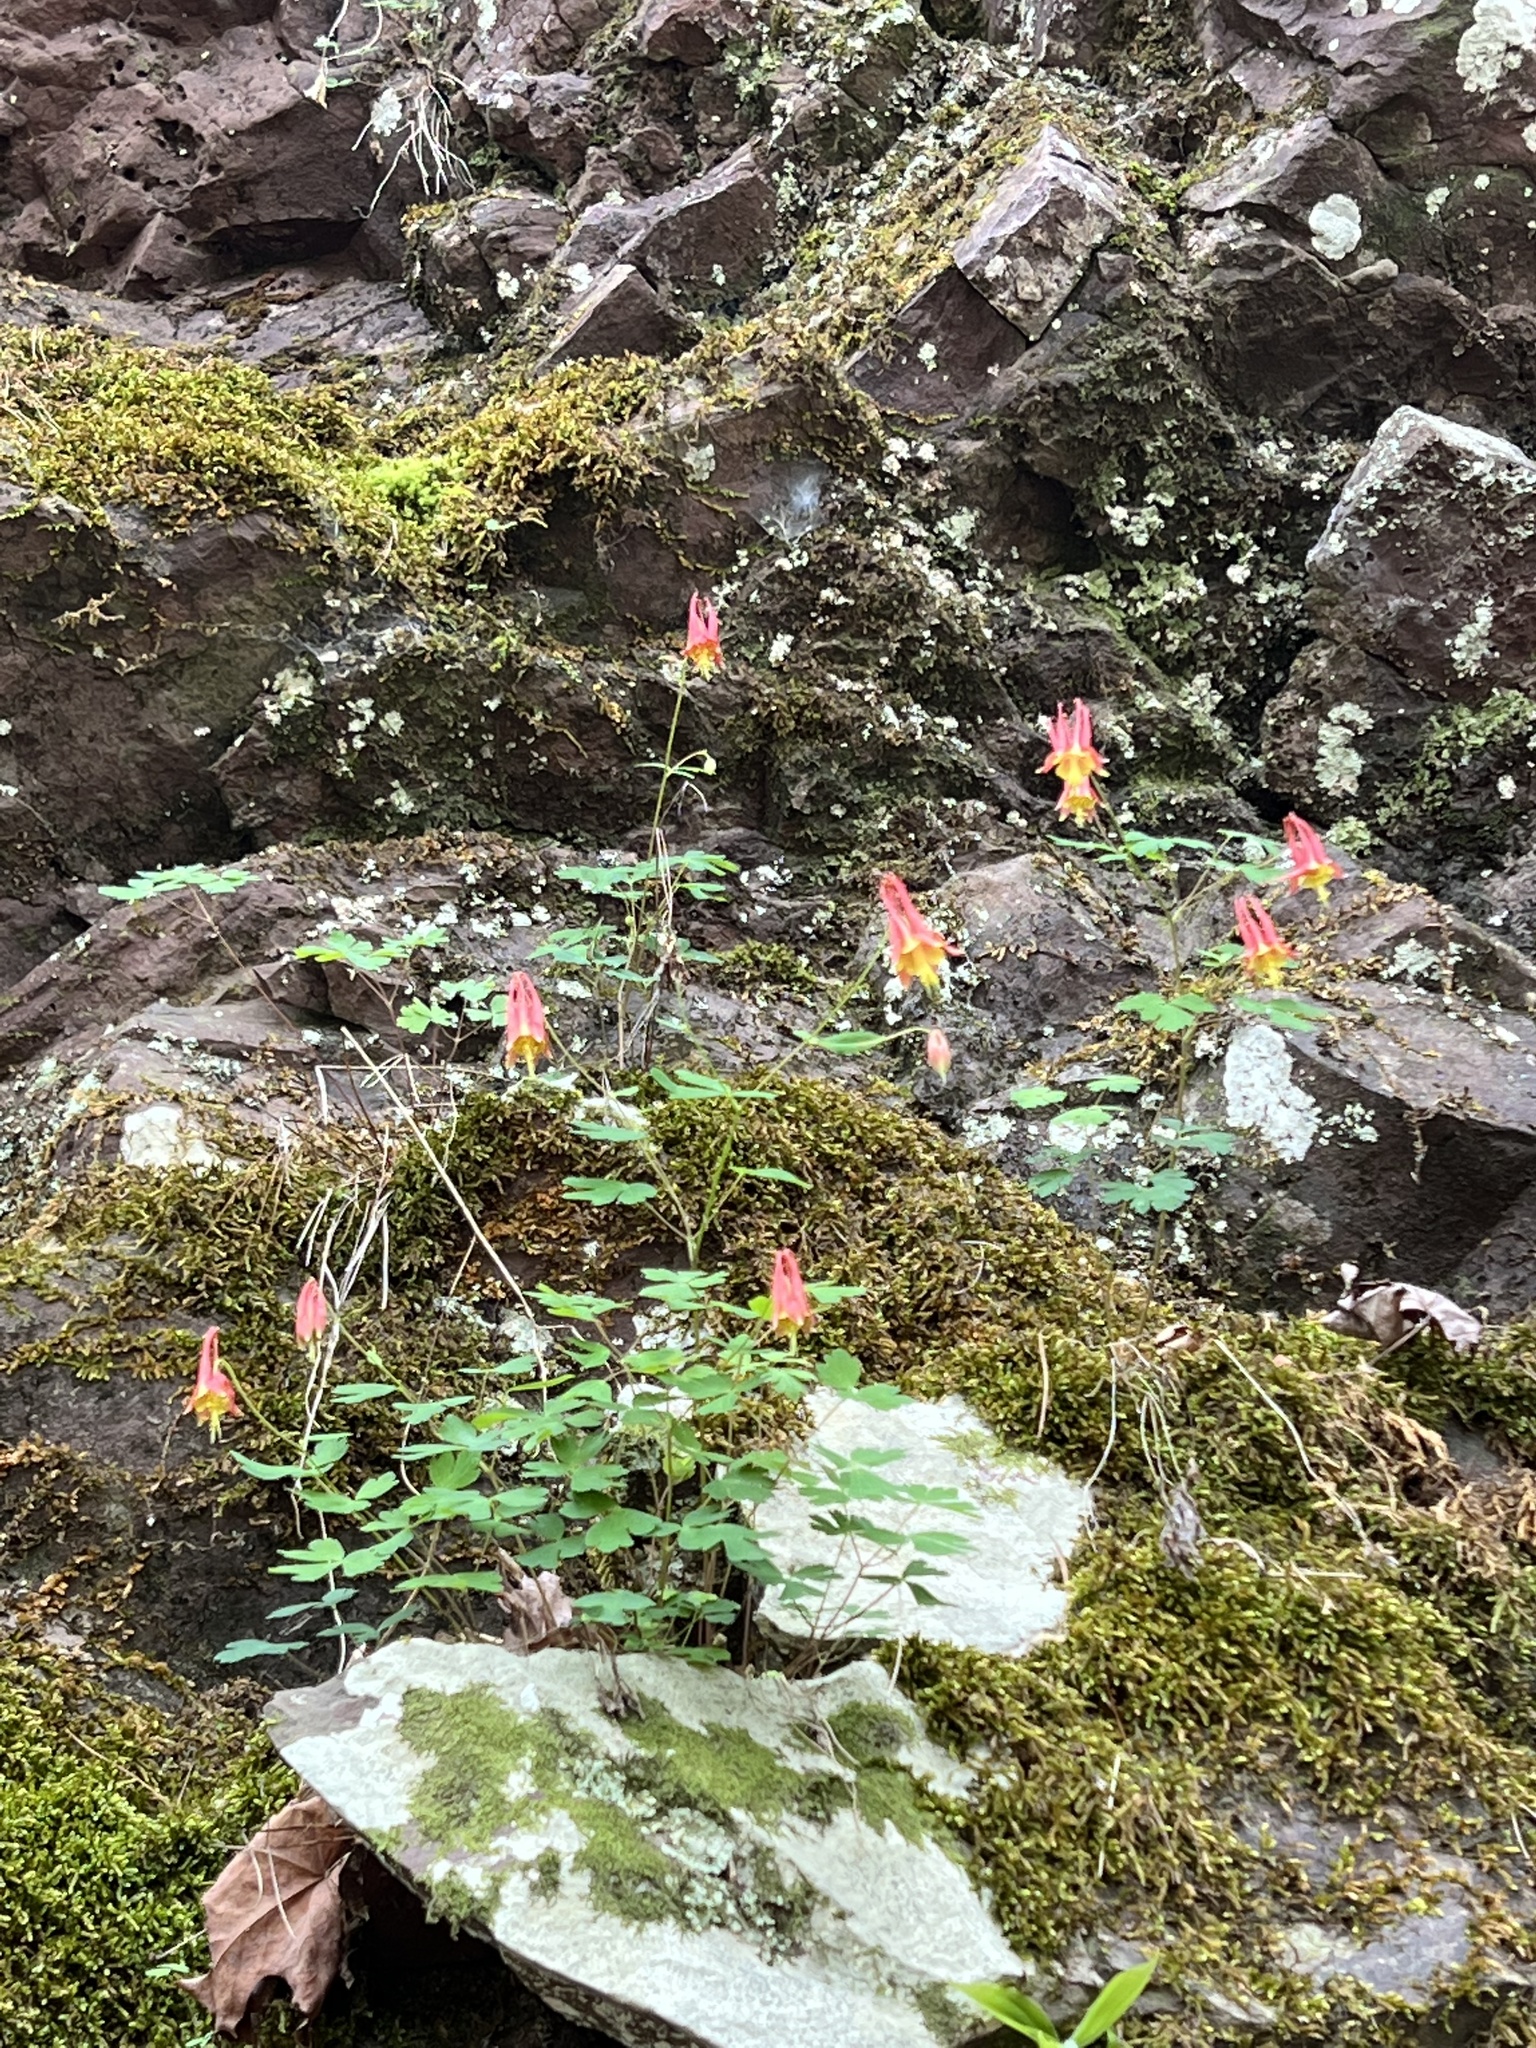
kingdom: Plantae
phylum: Tracheophyta
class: Magnoliopsida
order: Ranunculales
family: Ranunculaceae
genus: Aquilegia
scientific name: Aquilegia canadensis
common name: American columbine
